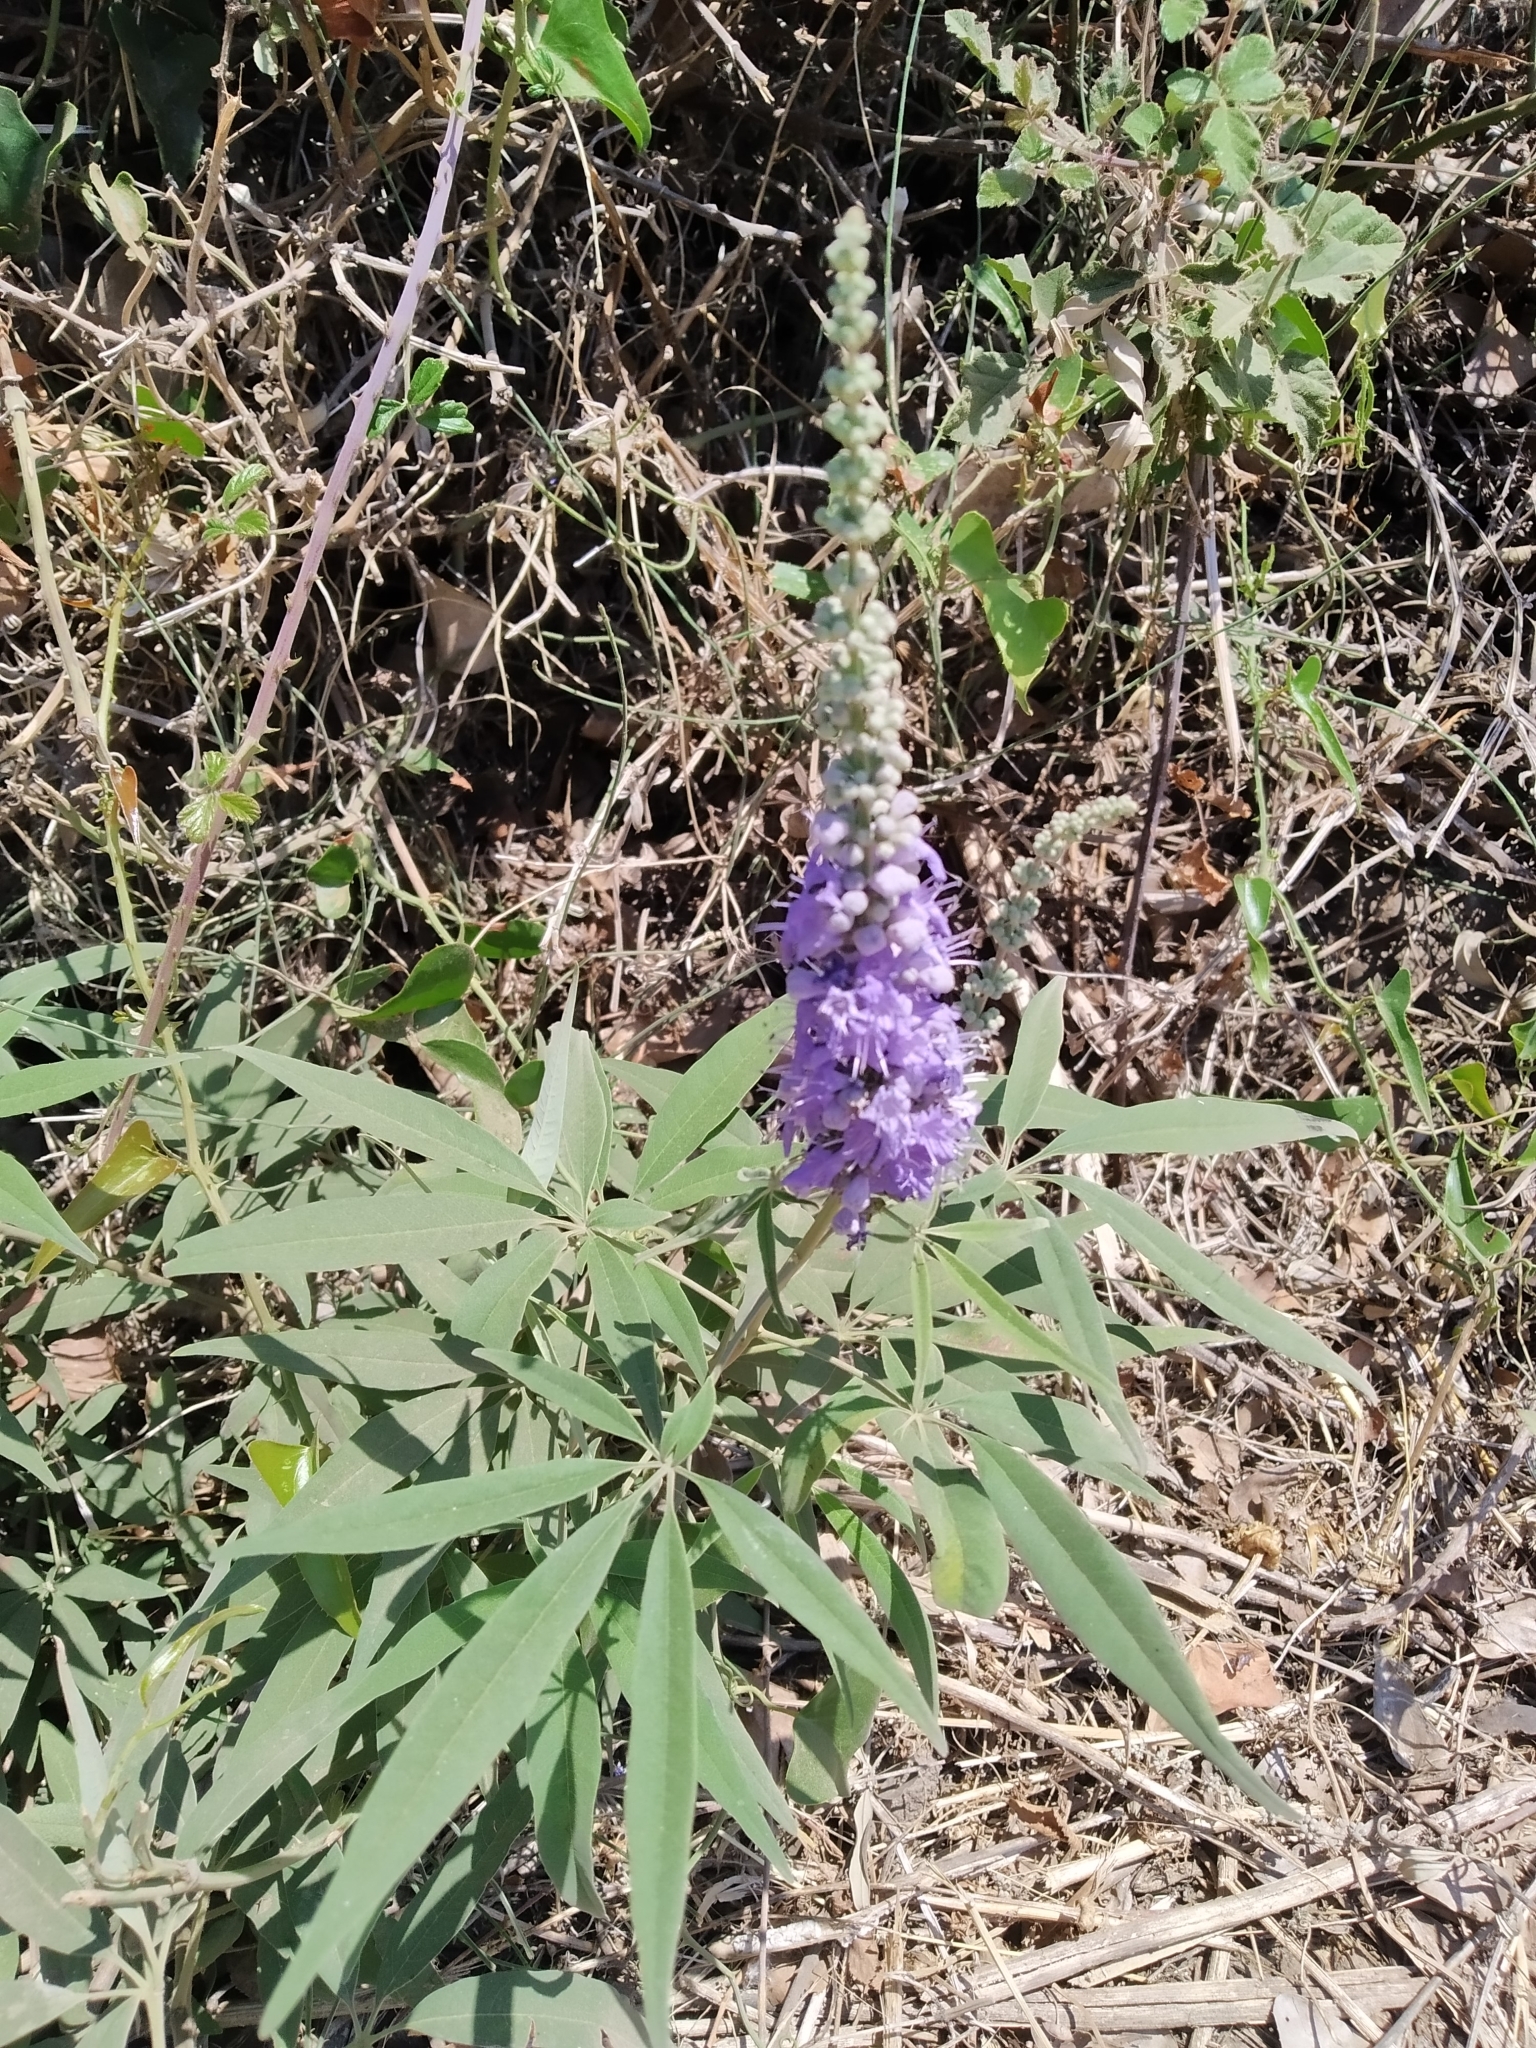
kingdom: Plantae
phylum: Tracheophyta
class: Magnoliopsida
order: Lamiales
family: Lamiaceae
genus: Vitex
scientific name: Vitex agnus-castus
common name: Chasteberry
